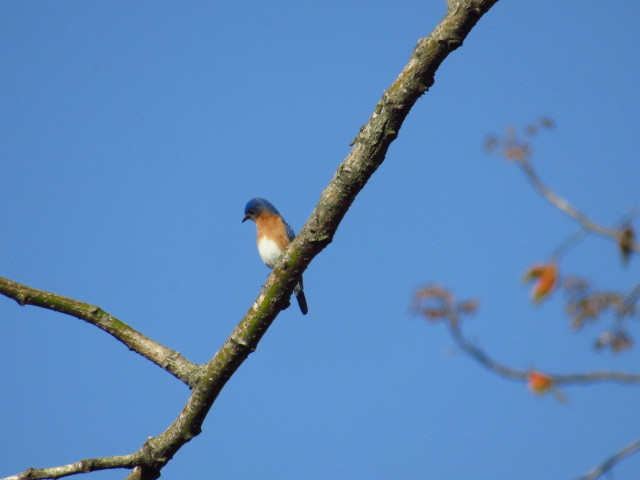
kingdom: Animalia
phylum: Chordata
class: Aves
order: Passeriformes
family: Turdidae
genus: Sialia
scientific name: Sialia sialis
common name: Eastern bluebird
